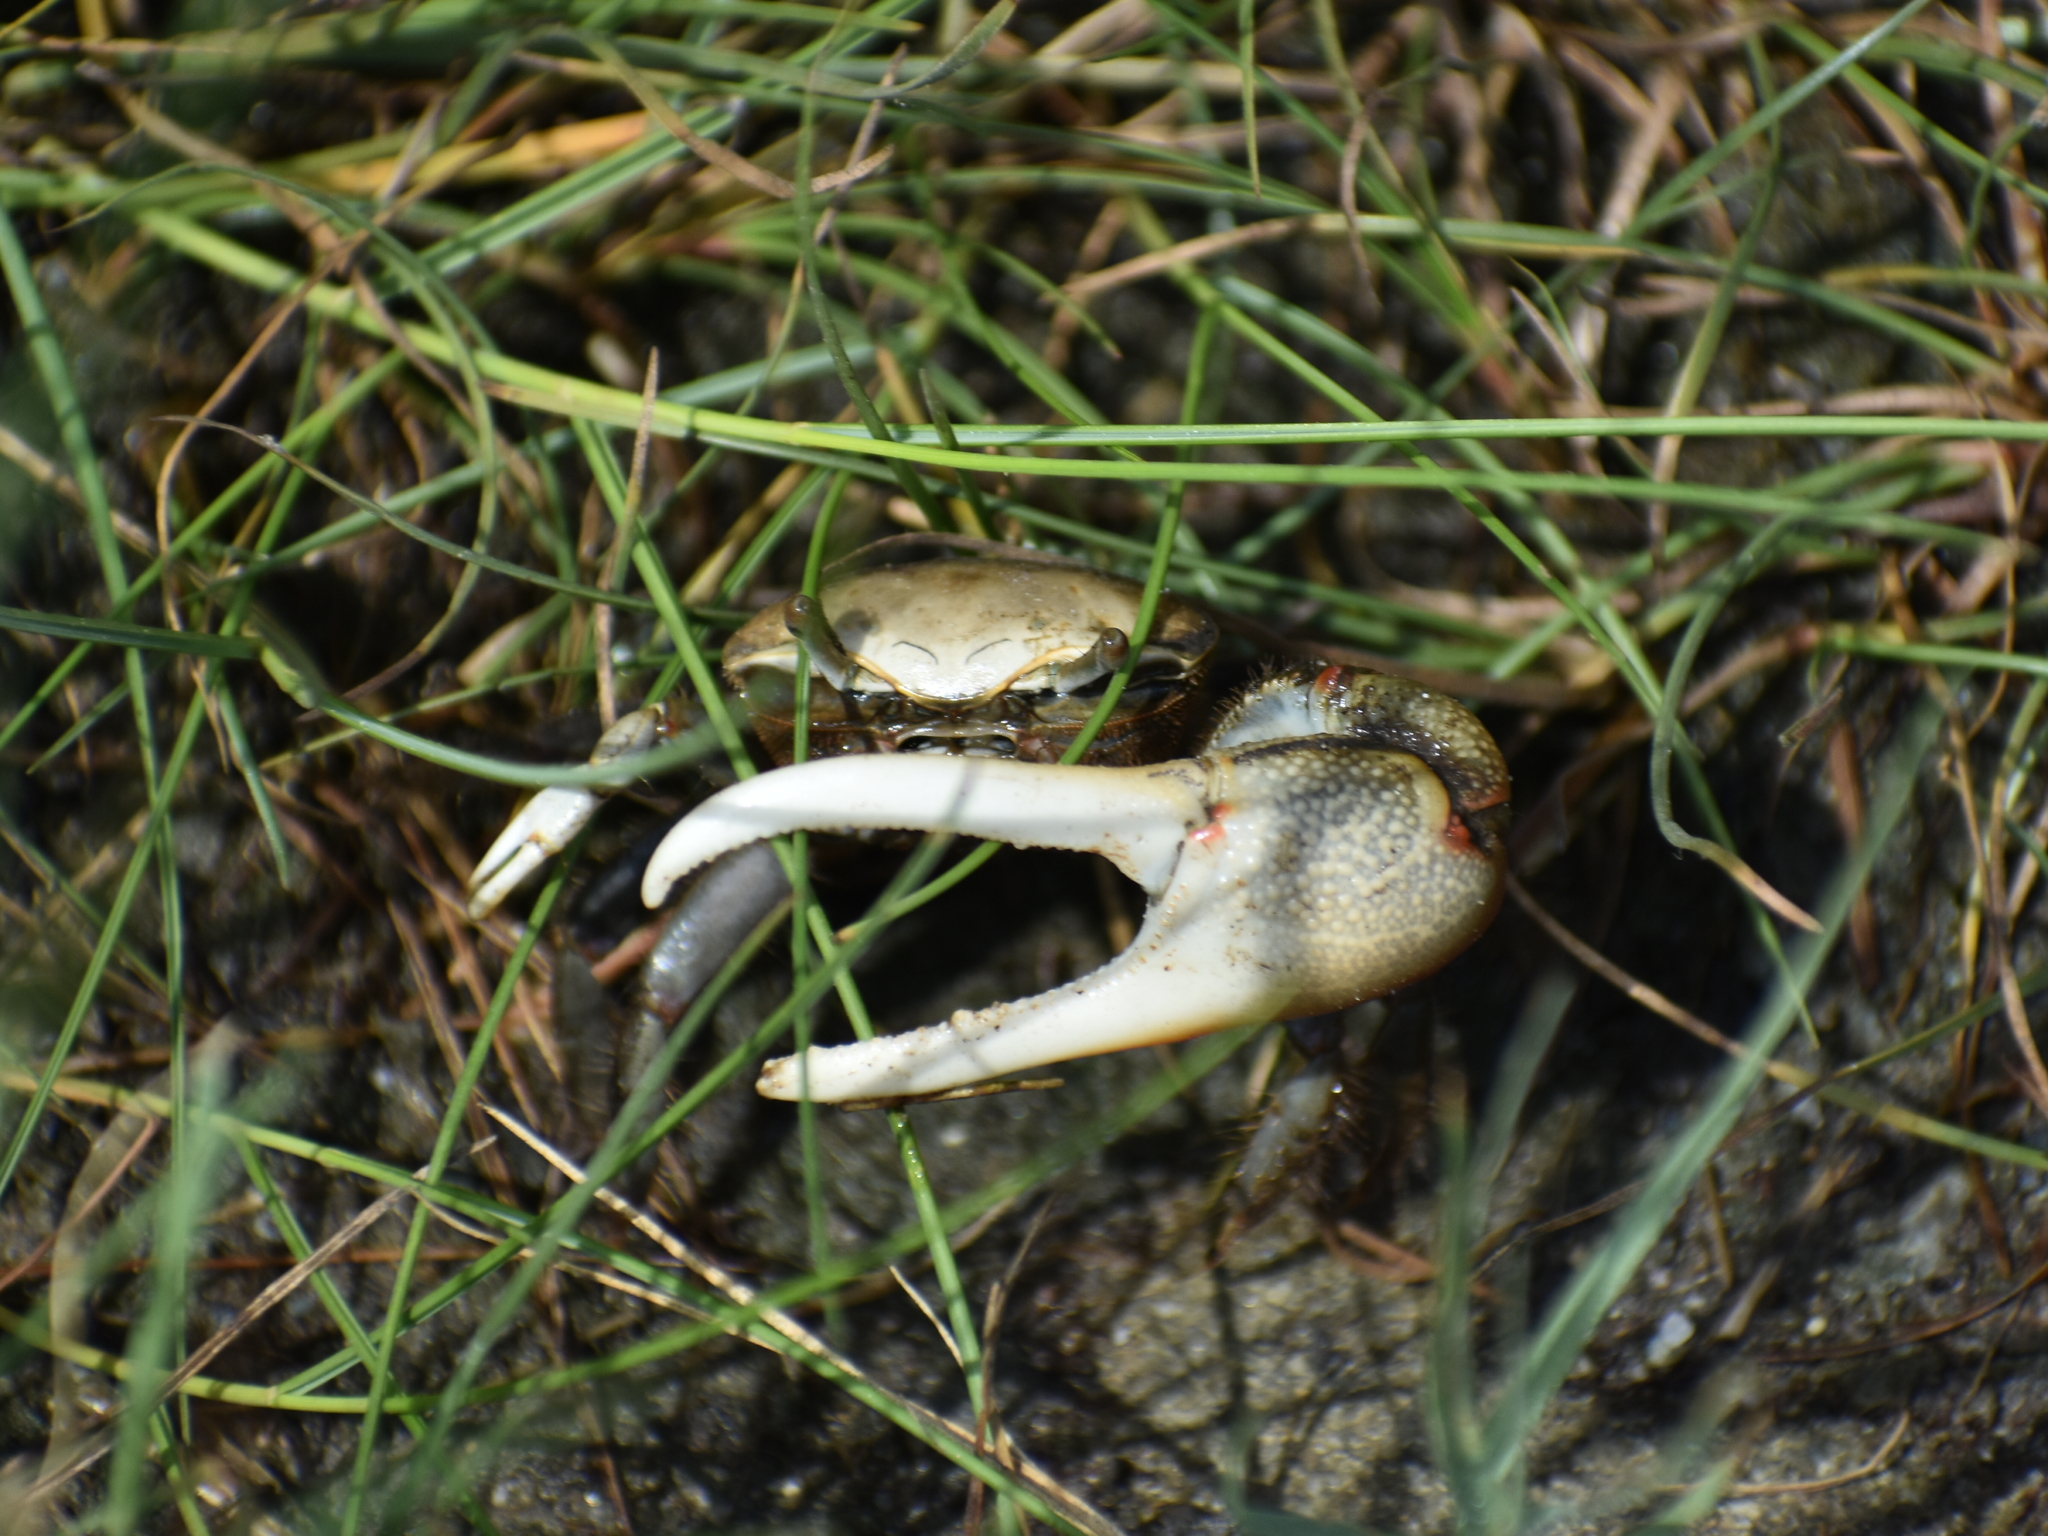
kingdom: Animalia
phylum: Arthropoda
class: Malacostraca
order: Decapoda
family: Ocypodidae
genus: Minuca
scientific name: Minuca minax
